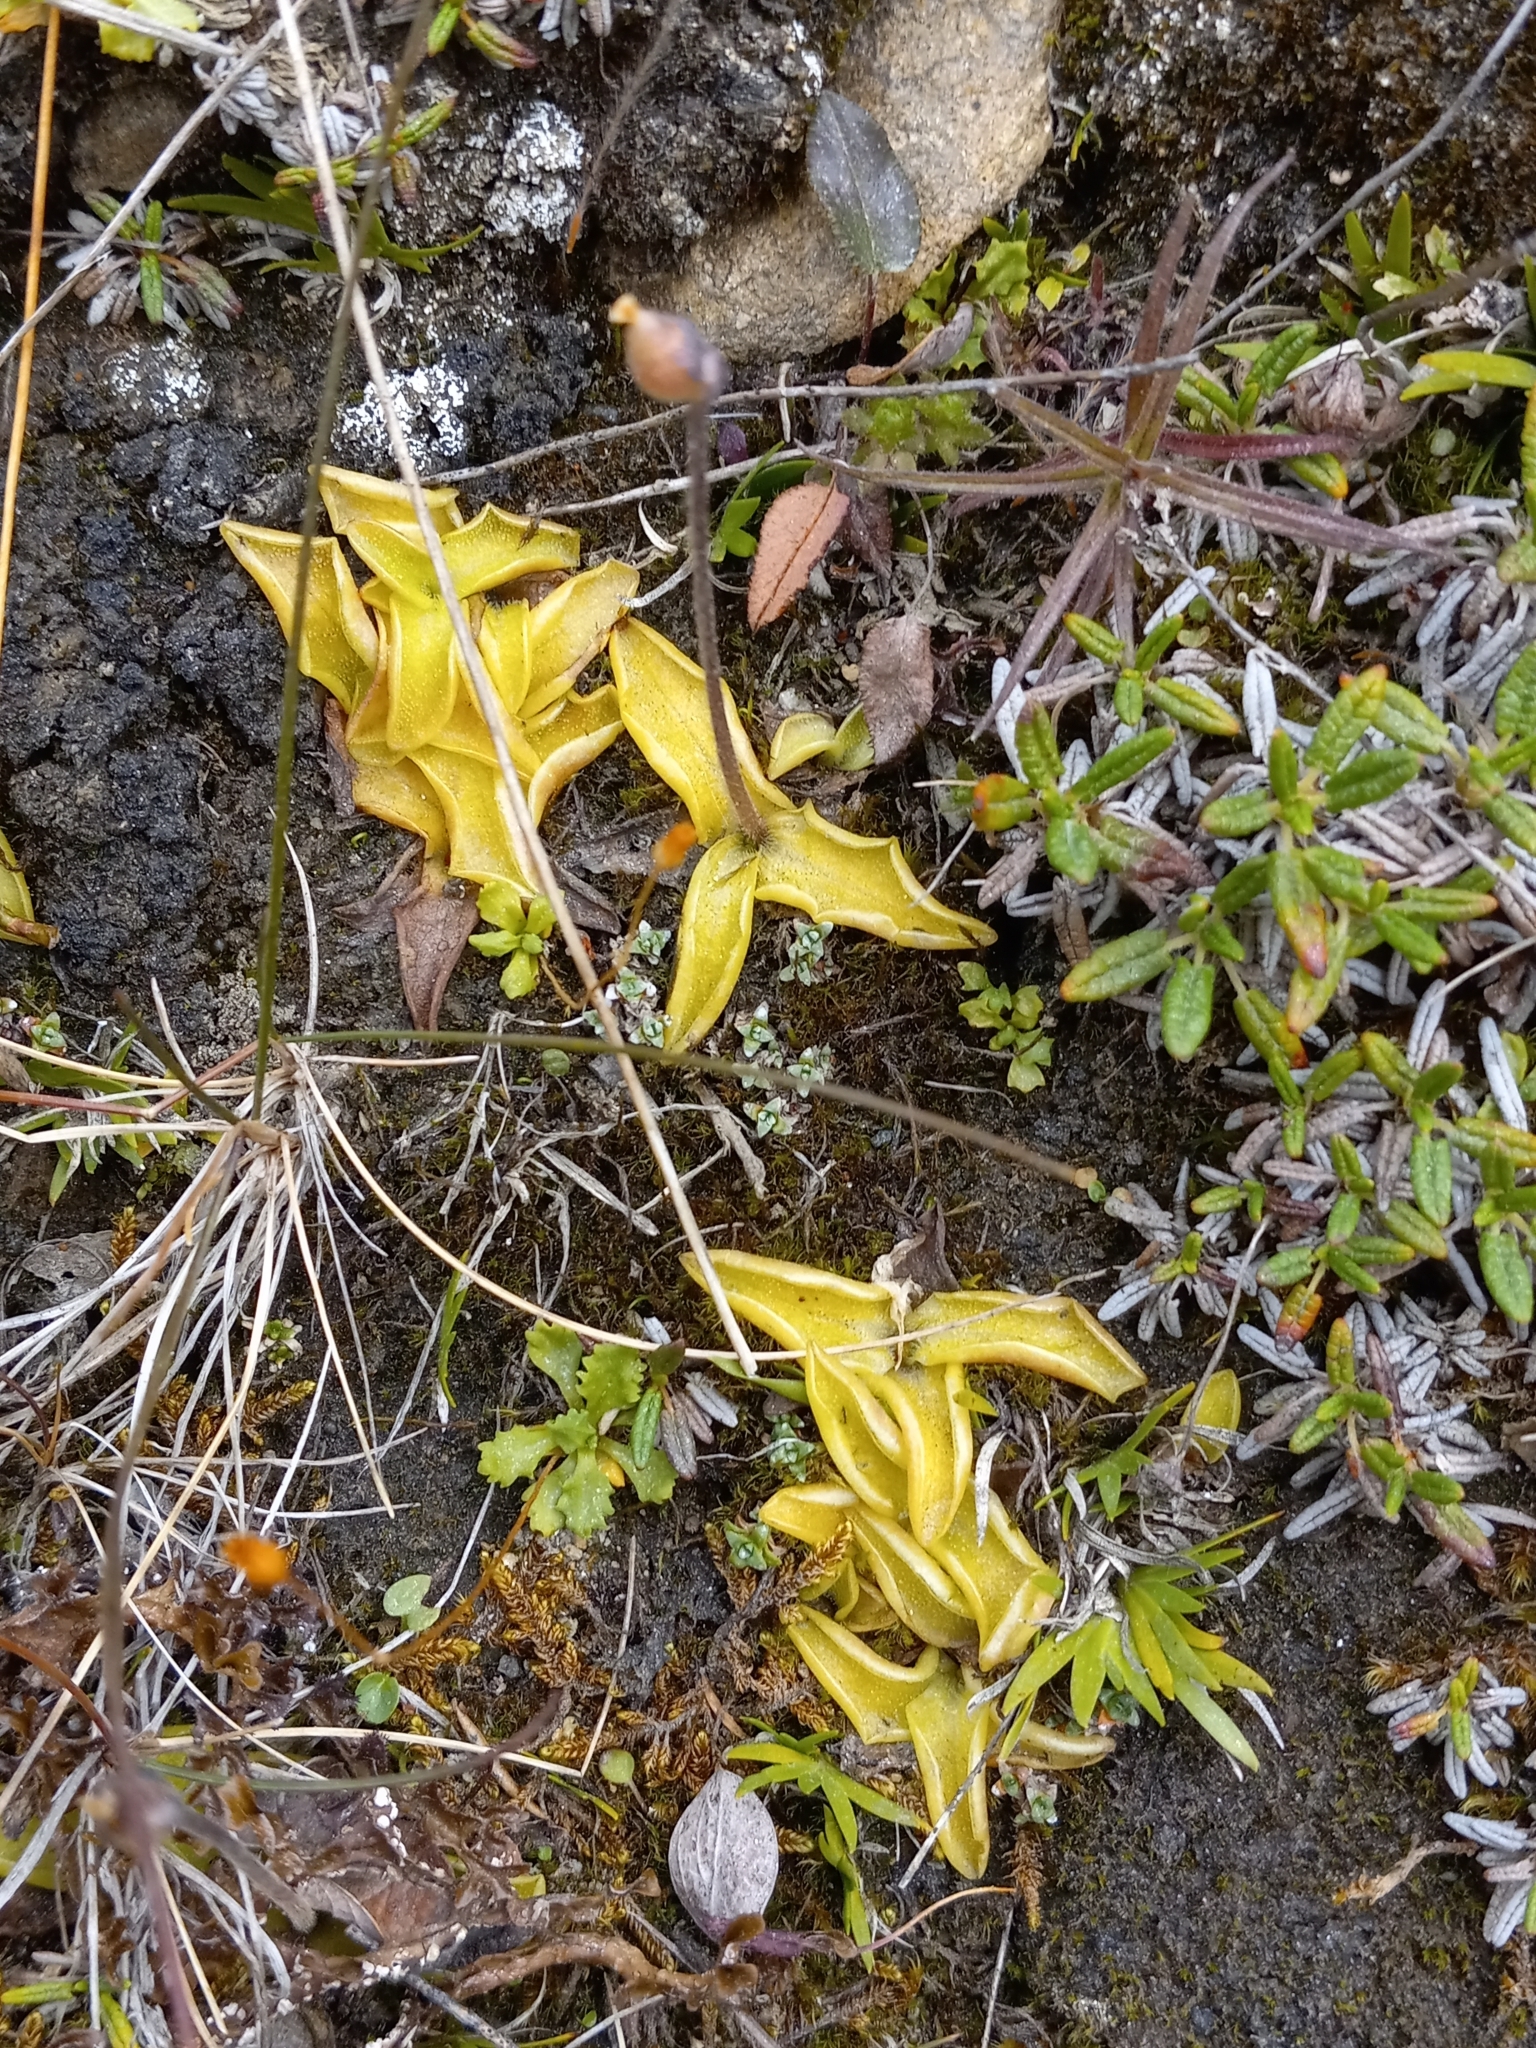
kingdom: Plantae
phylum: Tracheophyta
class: Magnoliopsida
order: Lamiales
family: Lentibulariaceae
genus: Pinguicula
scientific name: Pinguicula vulgaris
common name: Common butterwort
